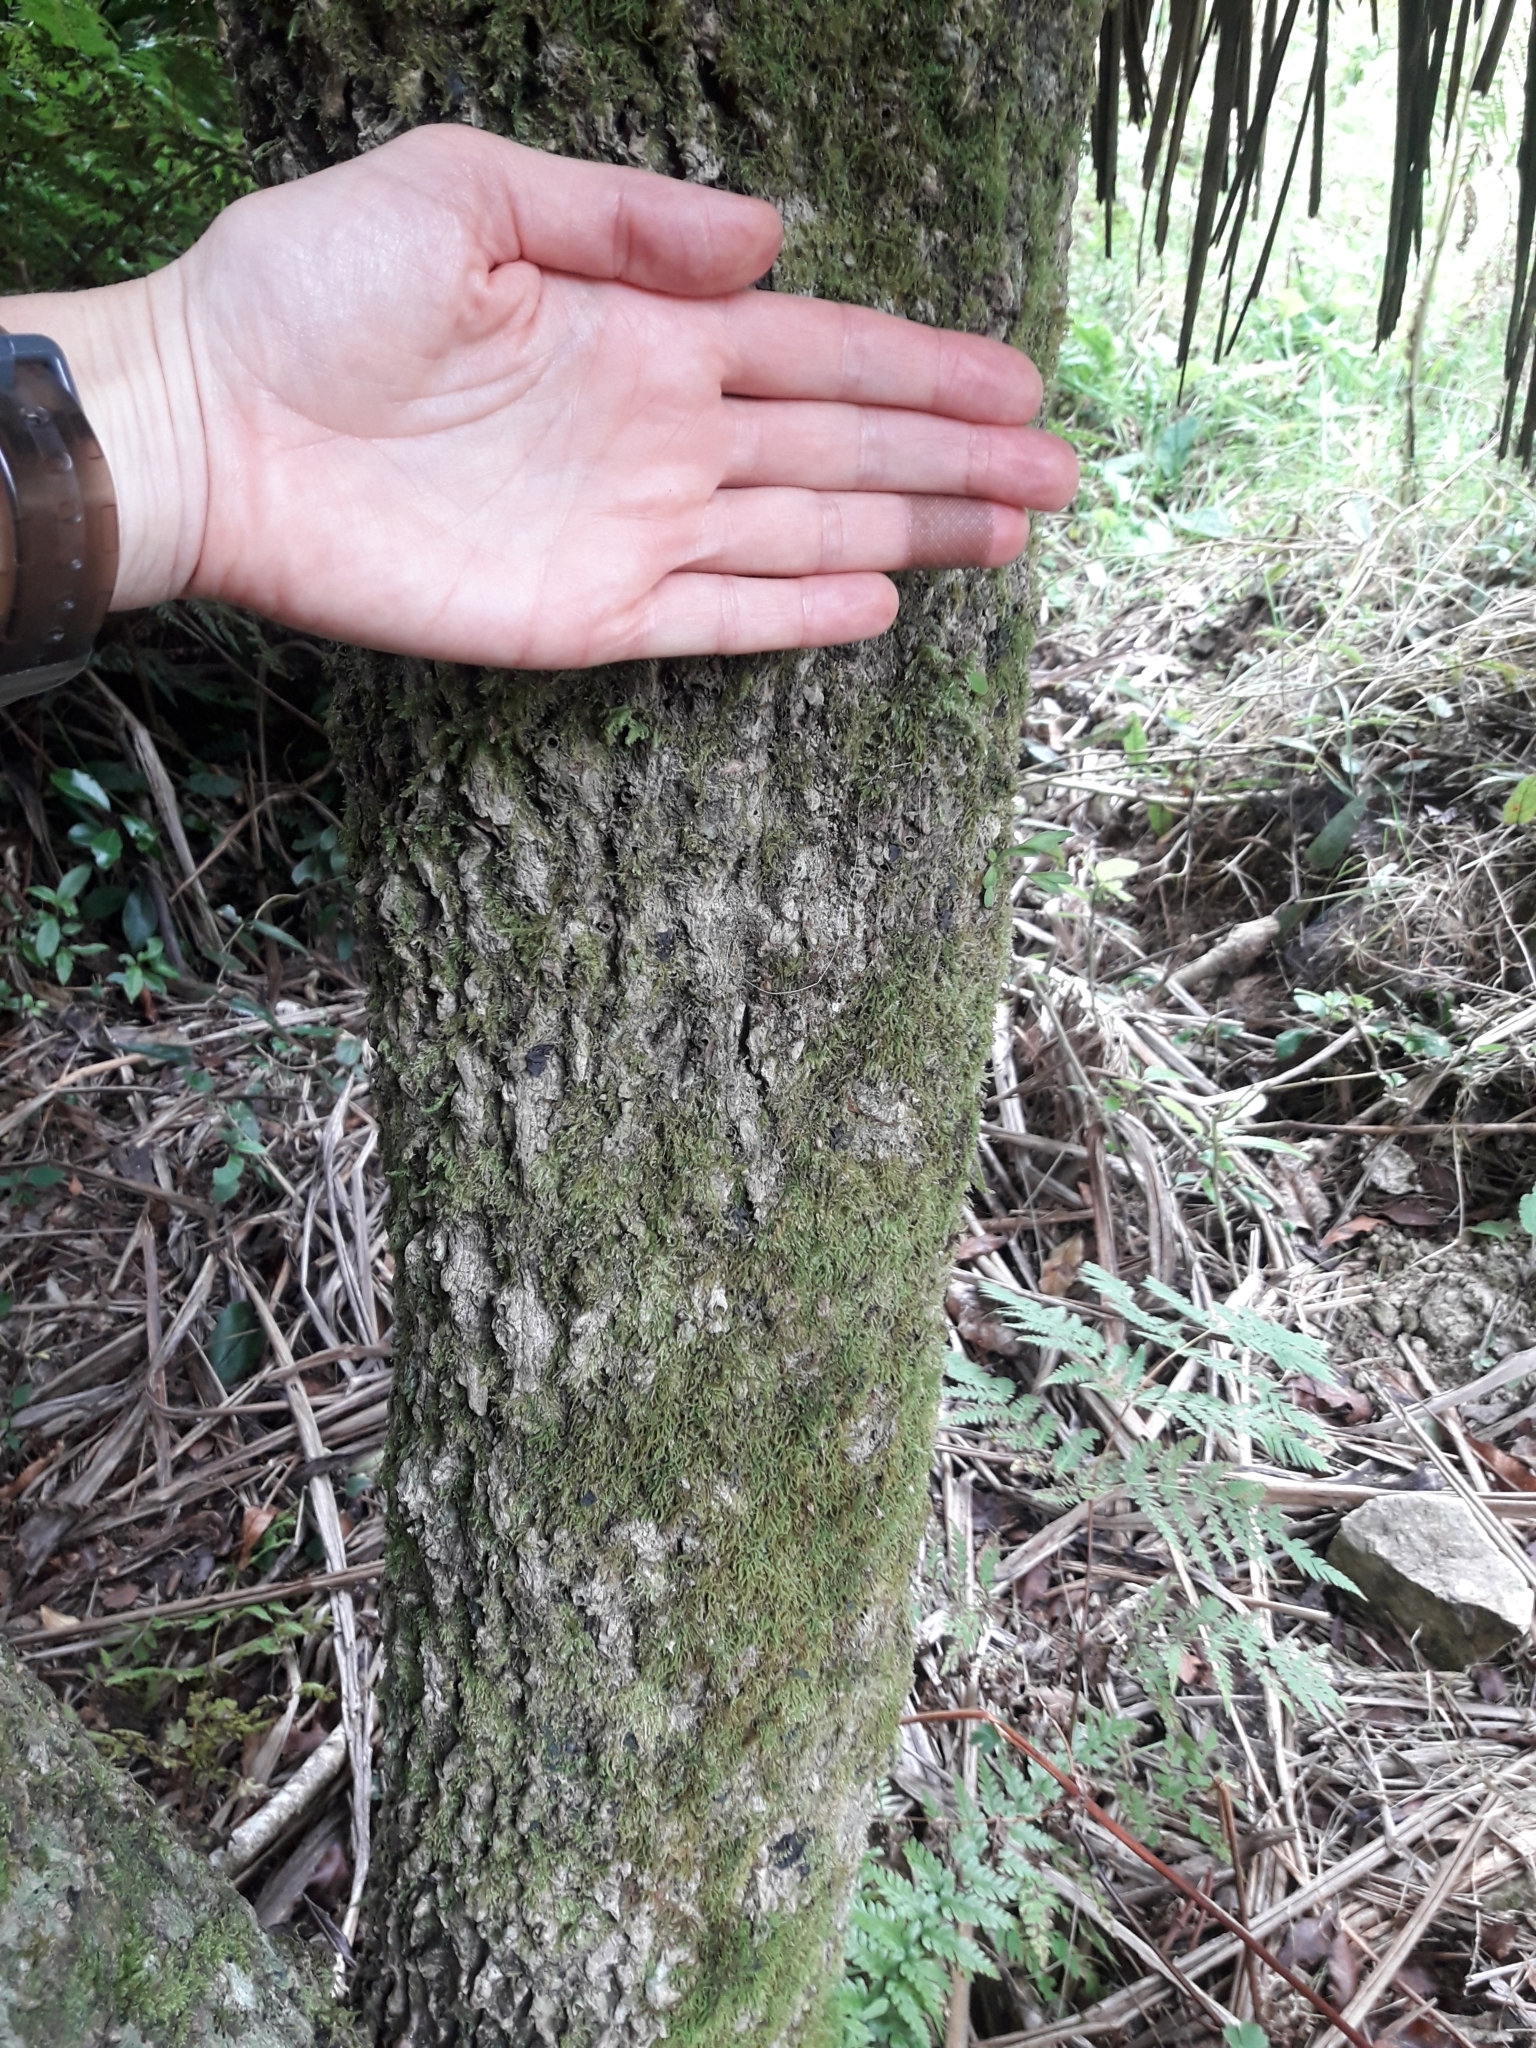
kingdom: Plantae
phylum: Tracheophyta
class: Liliopsida
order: Asparagales
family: Asparagaceae
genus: Cordyline
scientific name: Cordyline banksii
